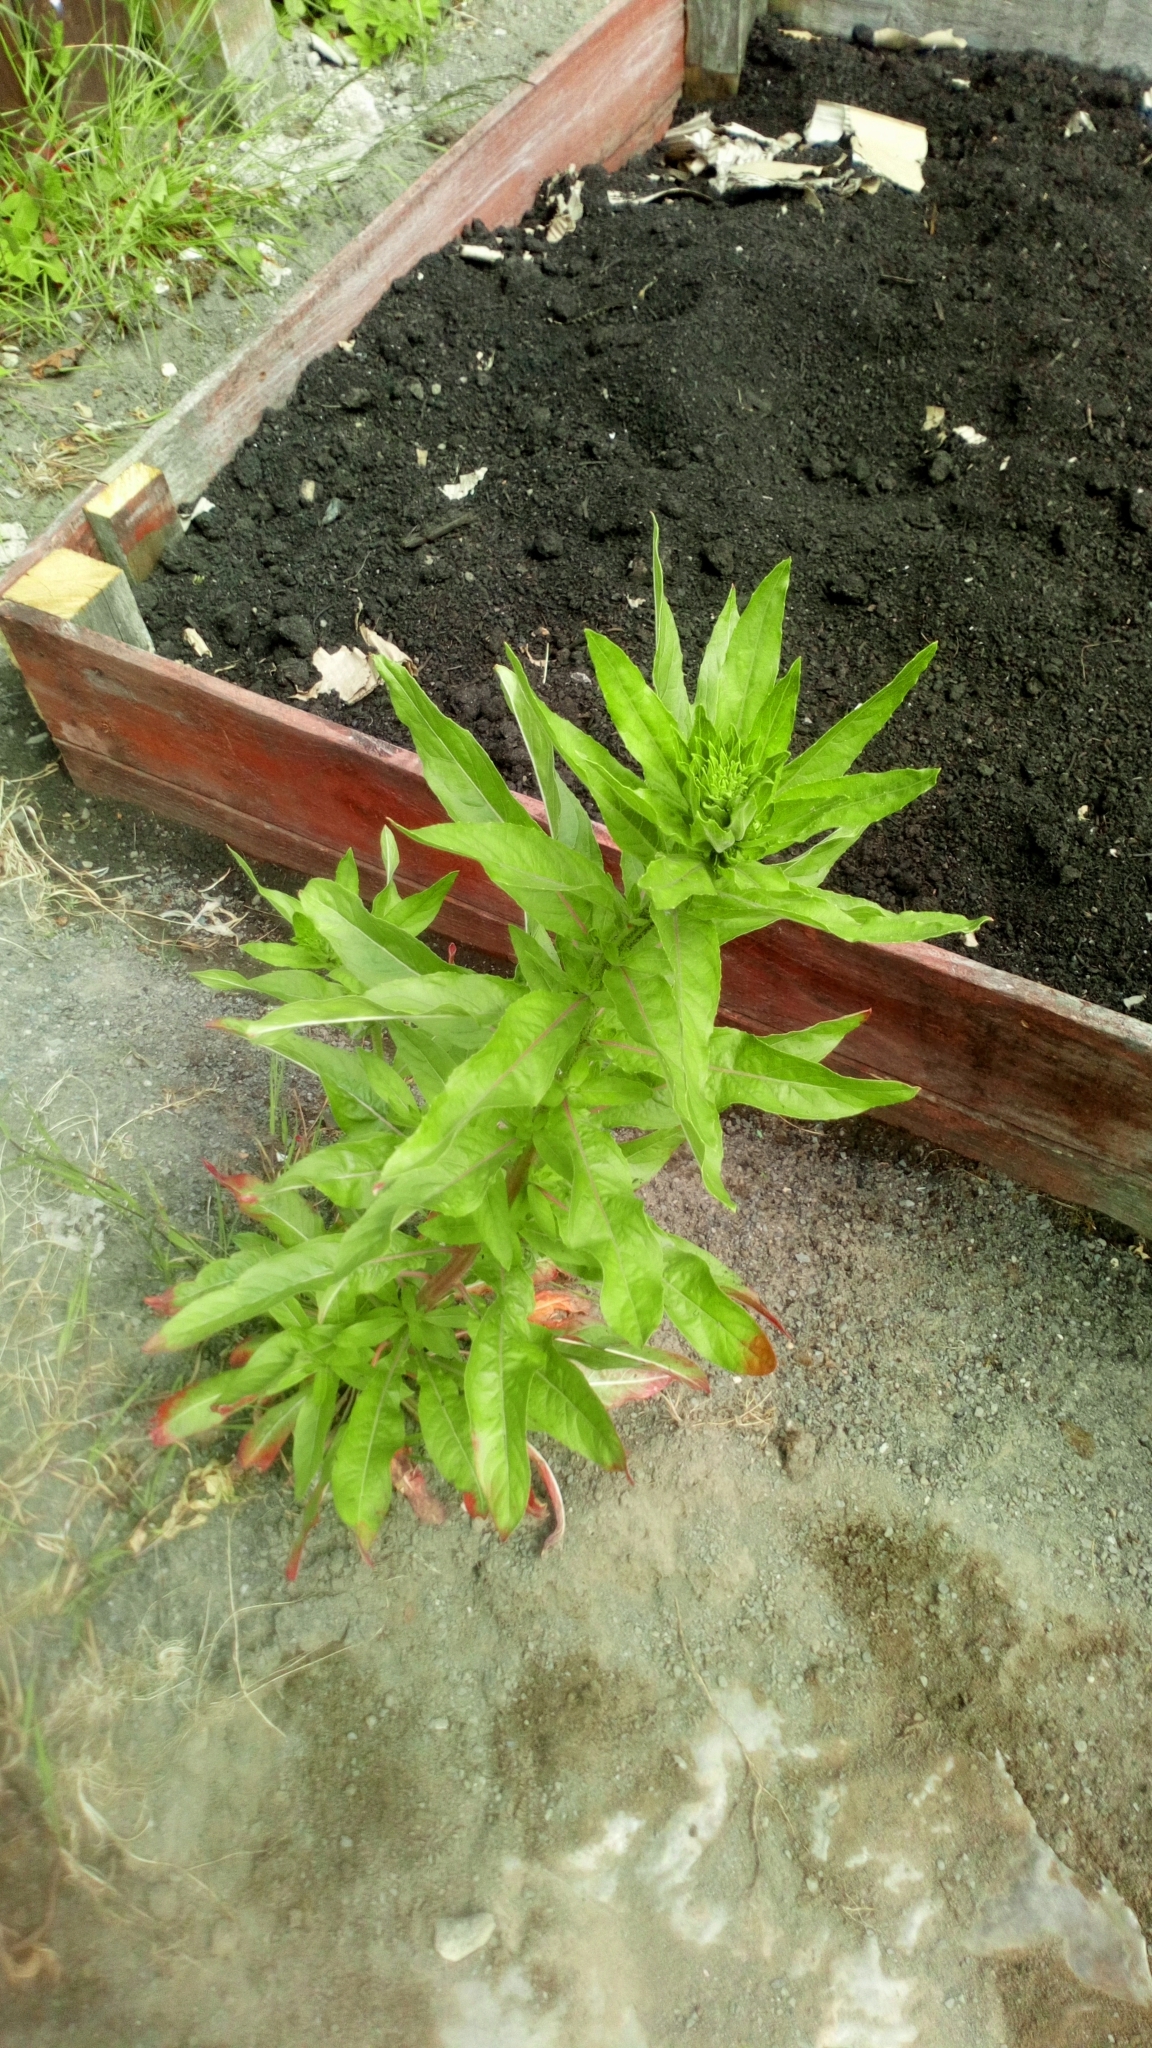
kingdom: Plantae
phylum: Tracheophyta
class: Magnoliopsida
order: Myrtales
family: Onagraceae
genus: Epilobium
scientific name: Epilobium hirsutum
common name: Great willowherb
